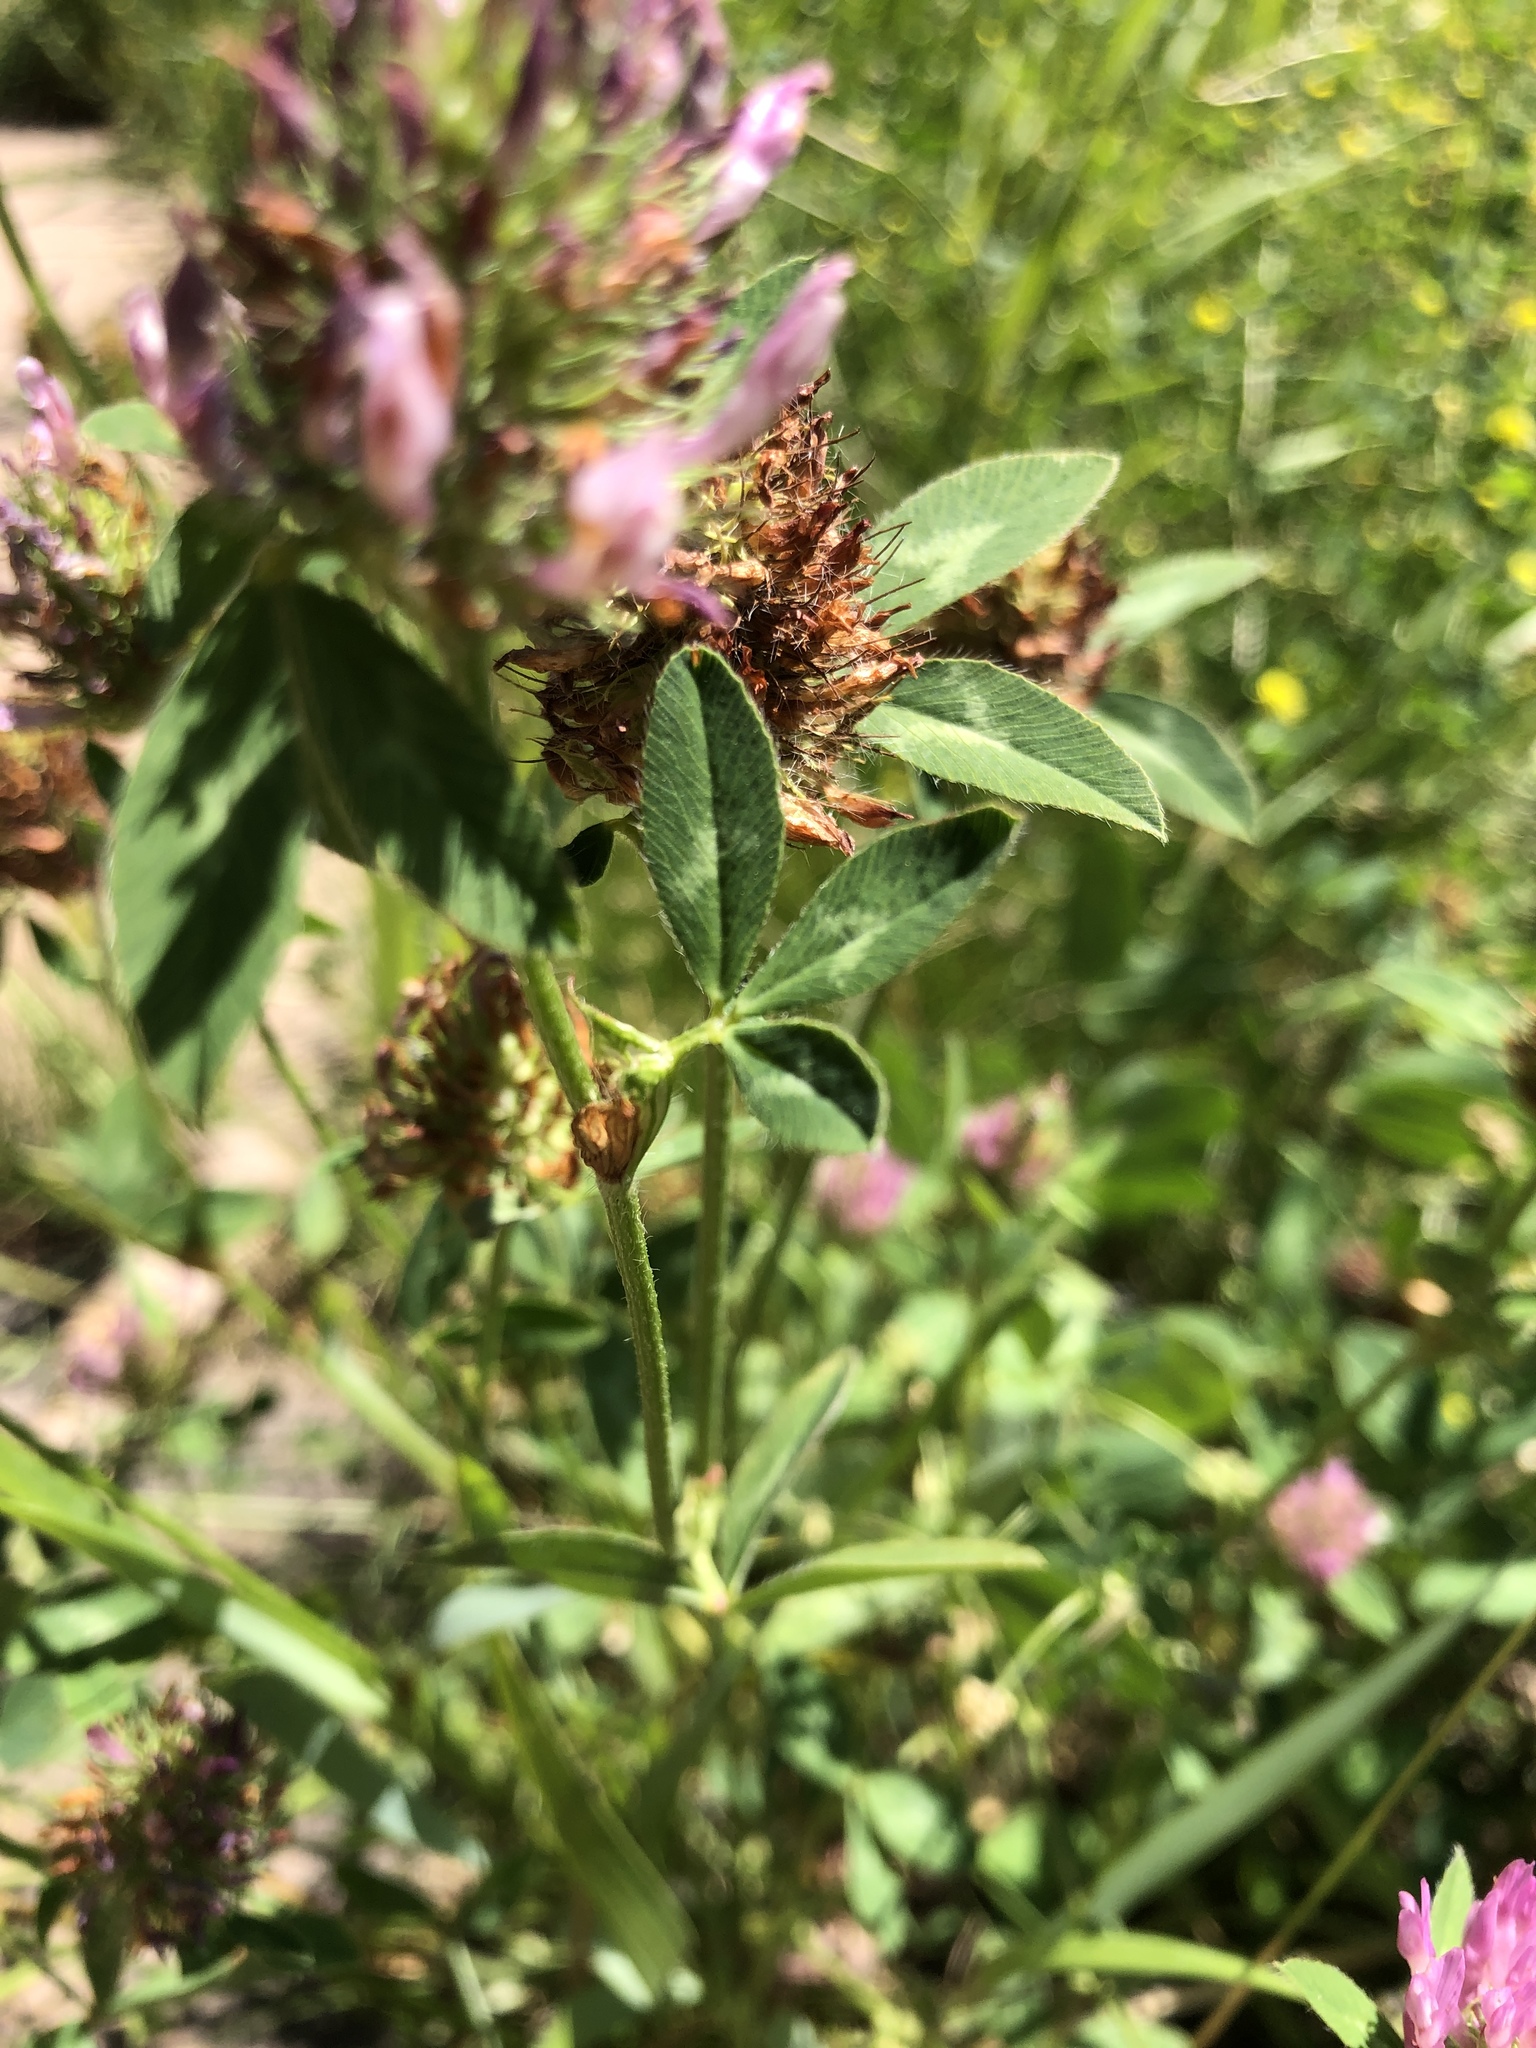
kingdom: Plantae
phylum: Tracheophyta
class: Magnoliopsida
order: Fabales
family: Fabaceae
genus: Trifolium
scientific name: Trifolium pratense
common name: Red clover
